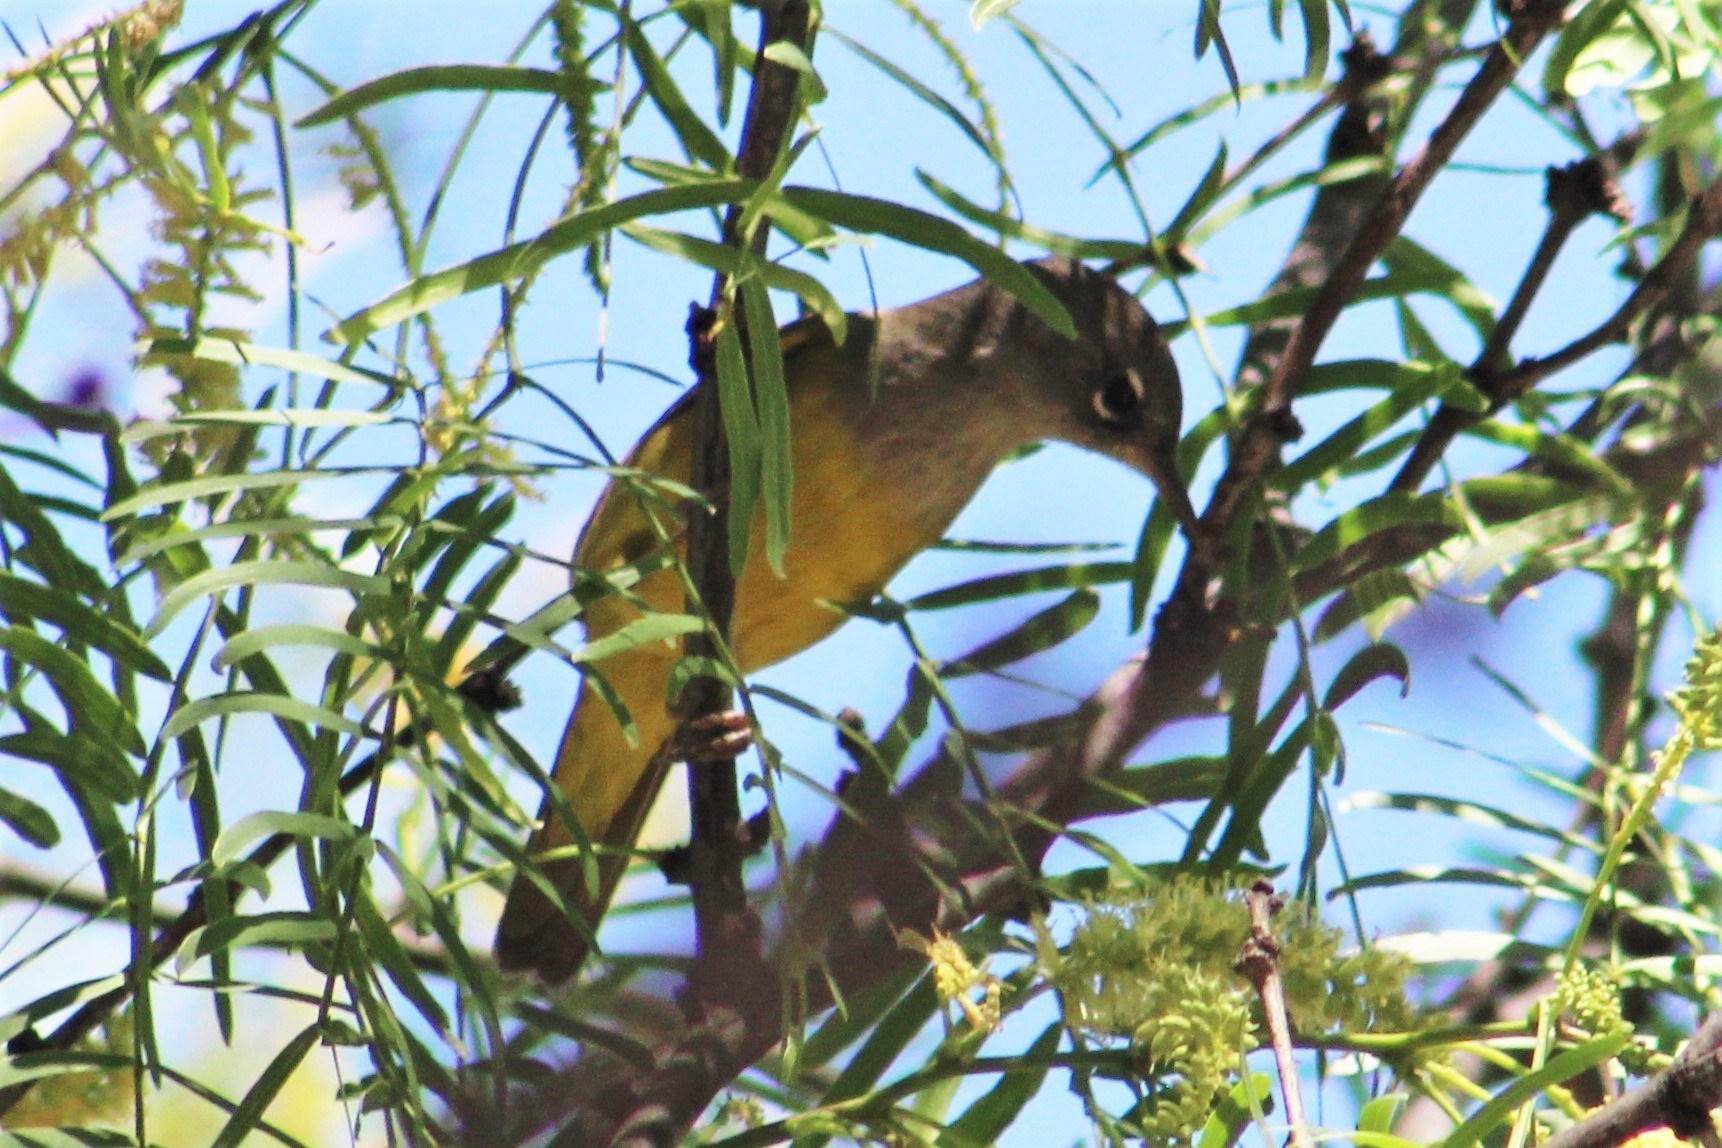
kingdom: Animalia
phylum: Chordata
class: Aves
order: Passeriformes
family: Parulidae
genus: Geothlypis
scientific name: Geothlypis tolmiei
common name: Macgillivray's warbler
